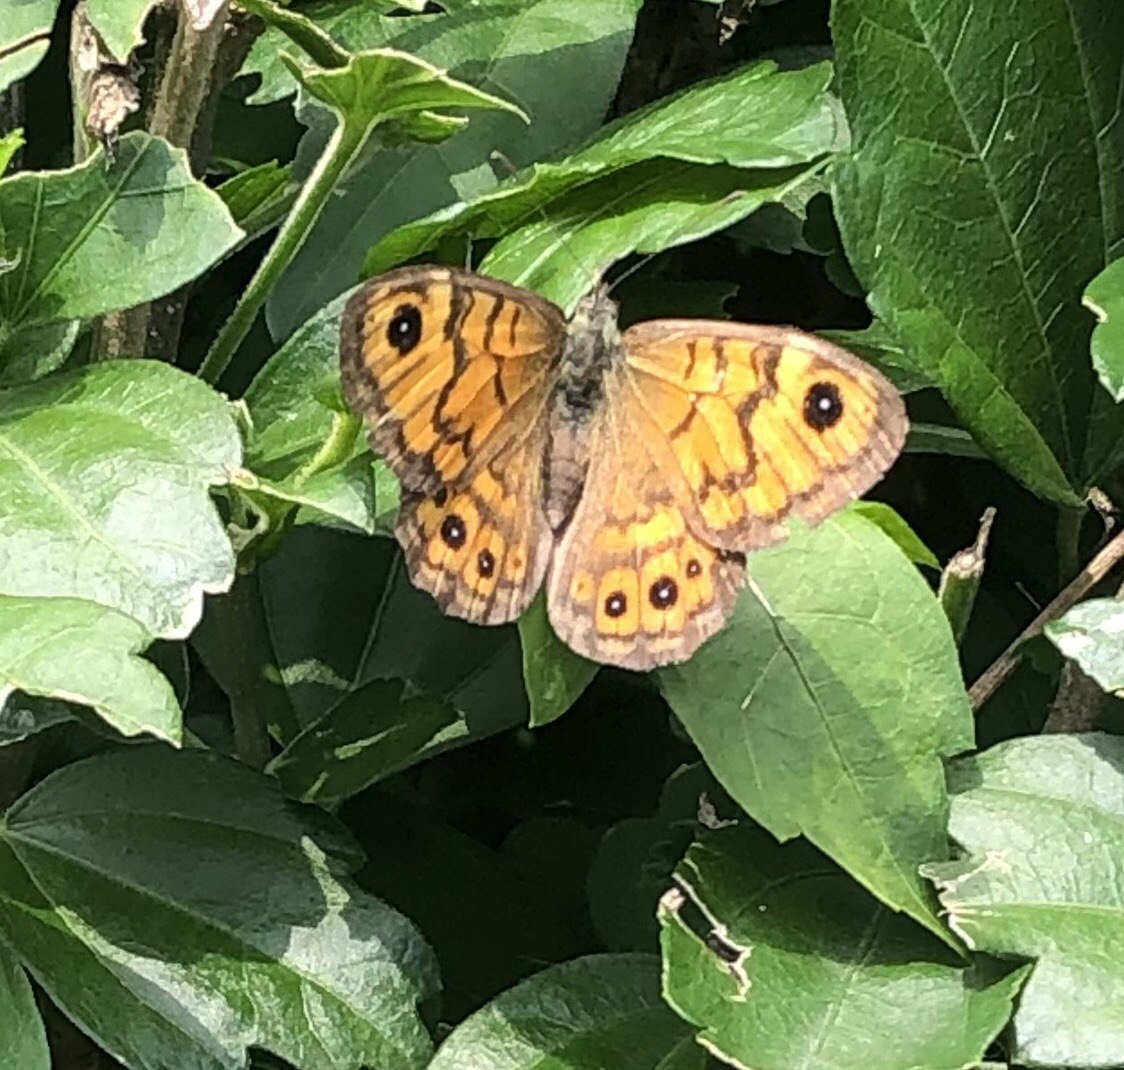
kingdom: Animalia
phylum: Arthropoda
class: Insecta
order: Lepidoptera
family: Nymphalidae
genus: Pararge
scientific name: Pararge Lasiommata megera
